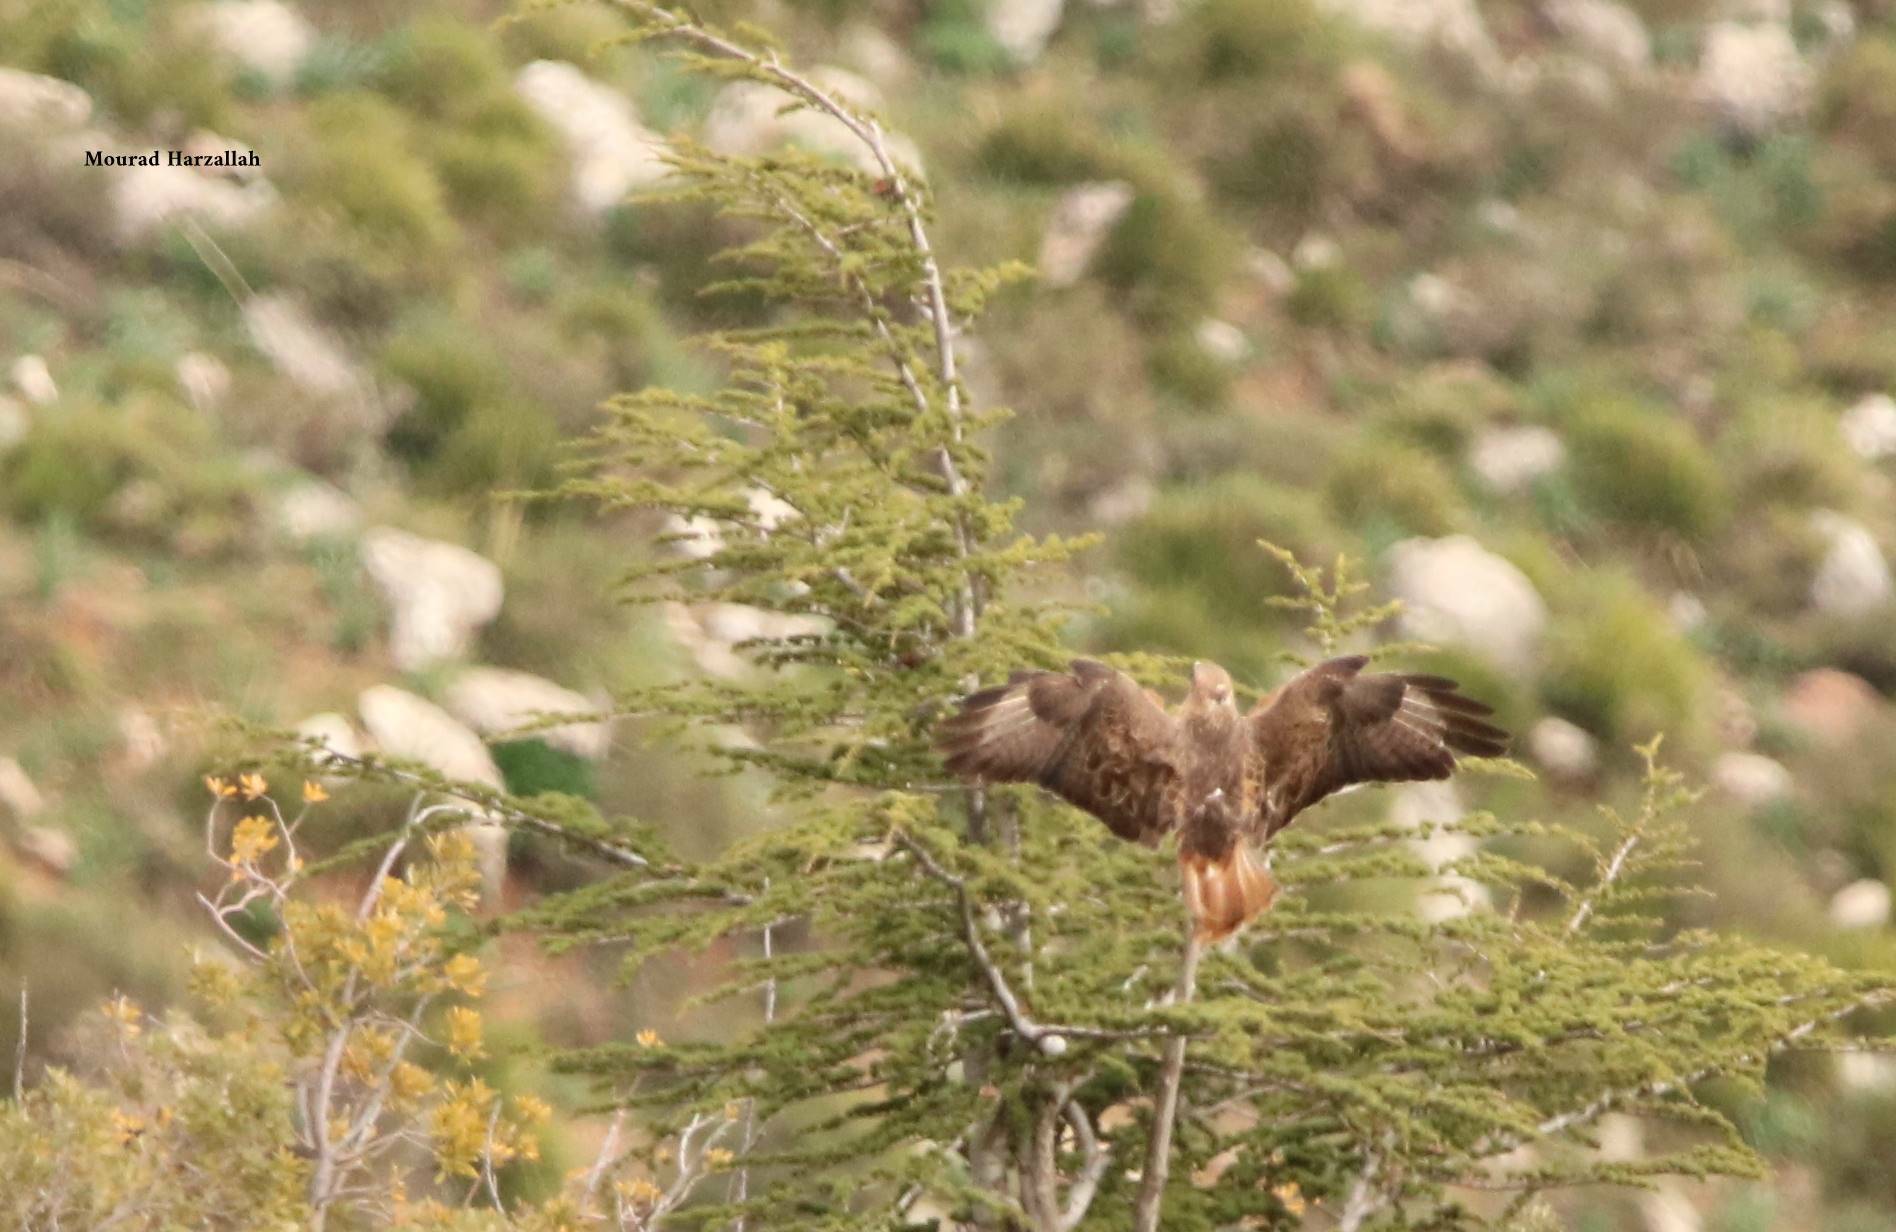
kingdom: Animalia
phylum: Chordata
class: Aves
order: Accipitriformes
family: Accipitridae
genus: Buteo
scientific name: Buteo rufinus
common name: Long-legged buzzard
